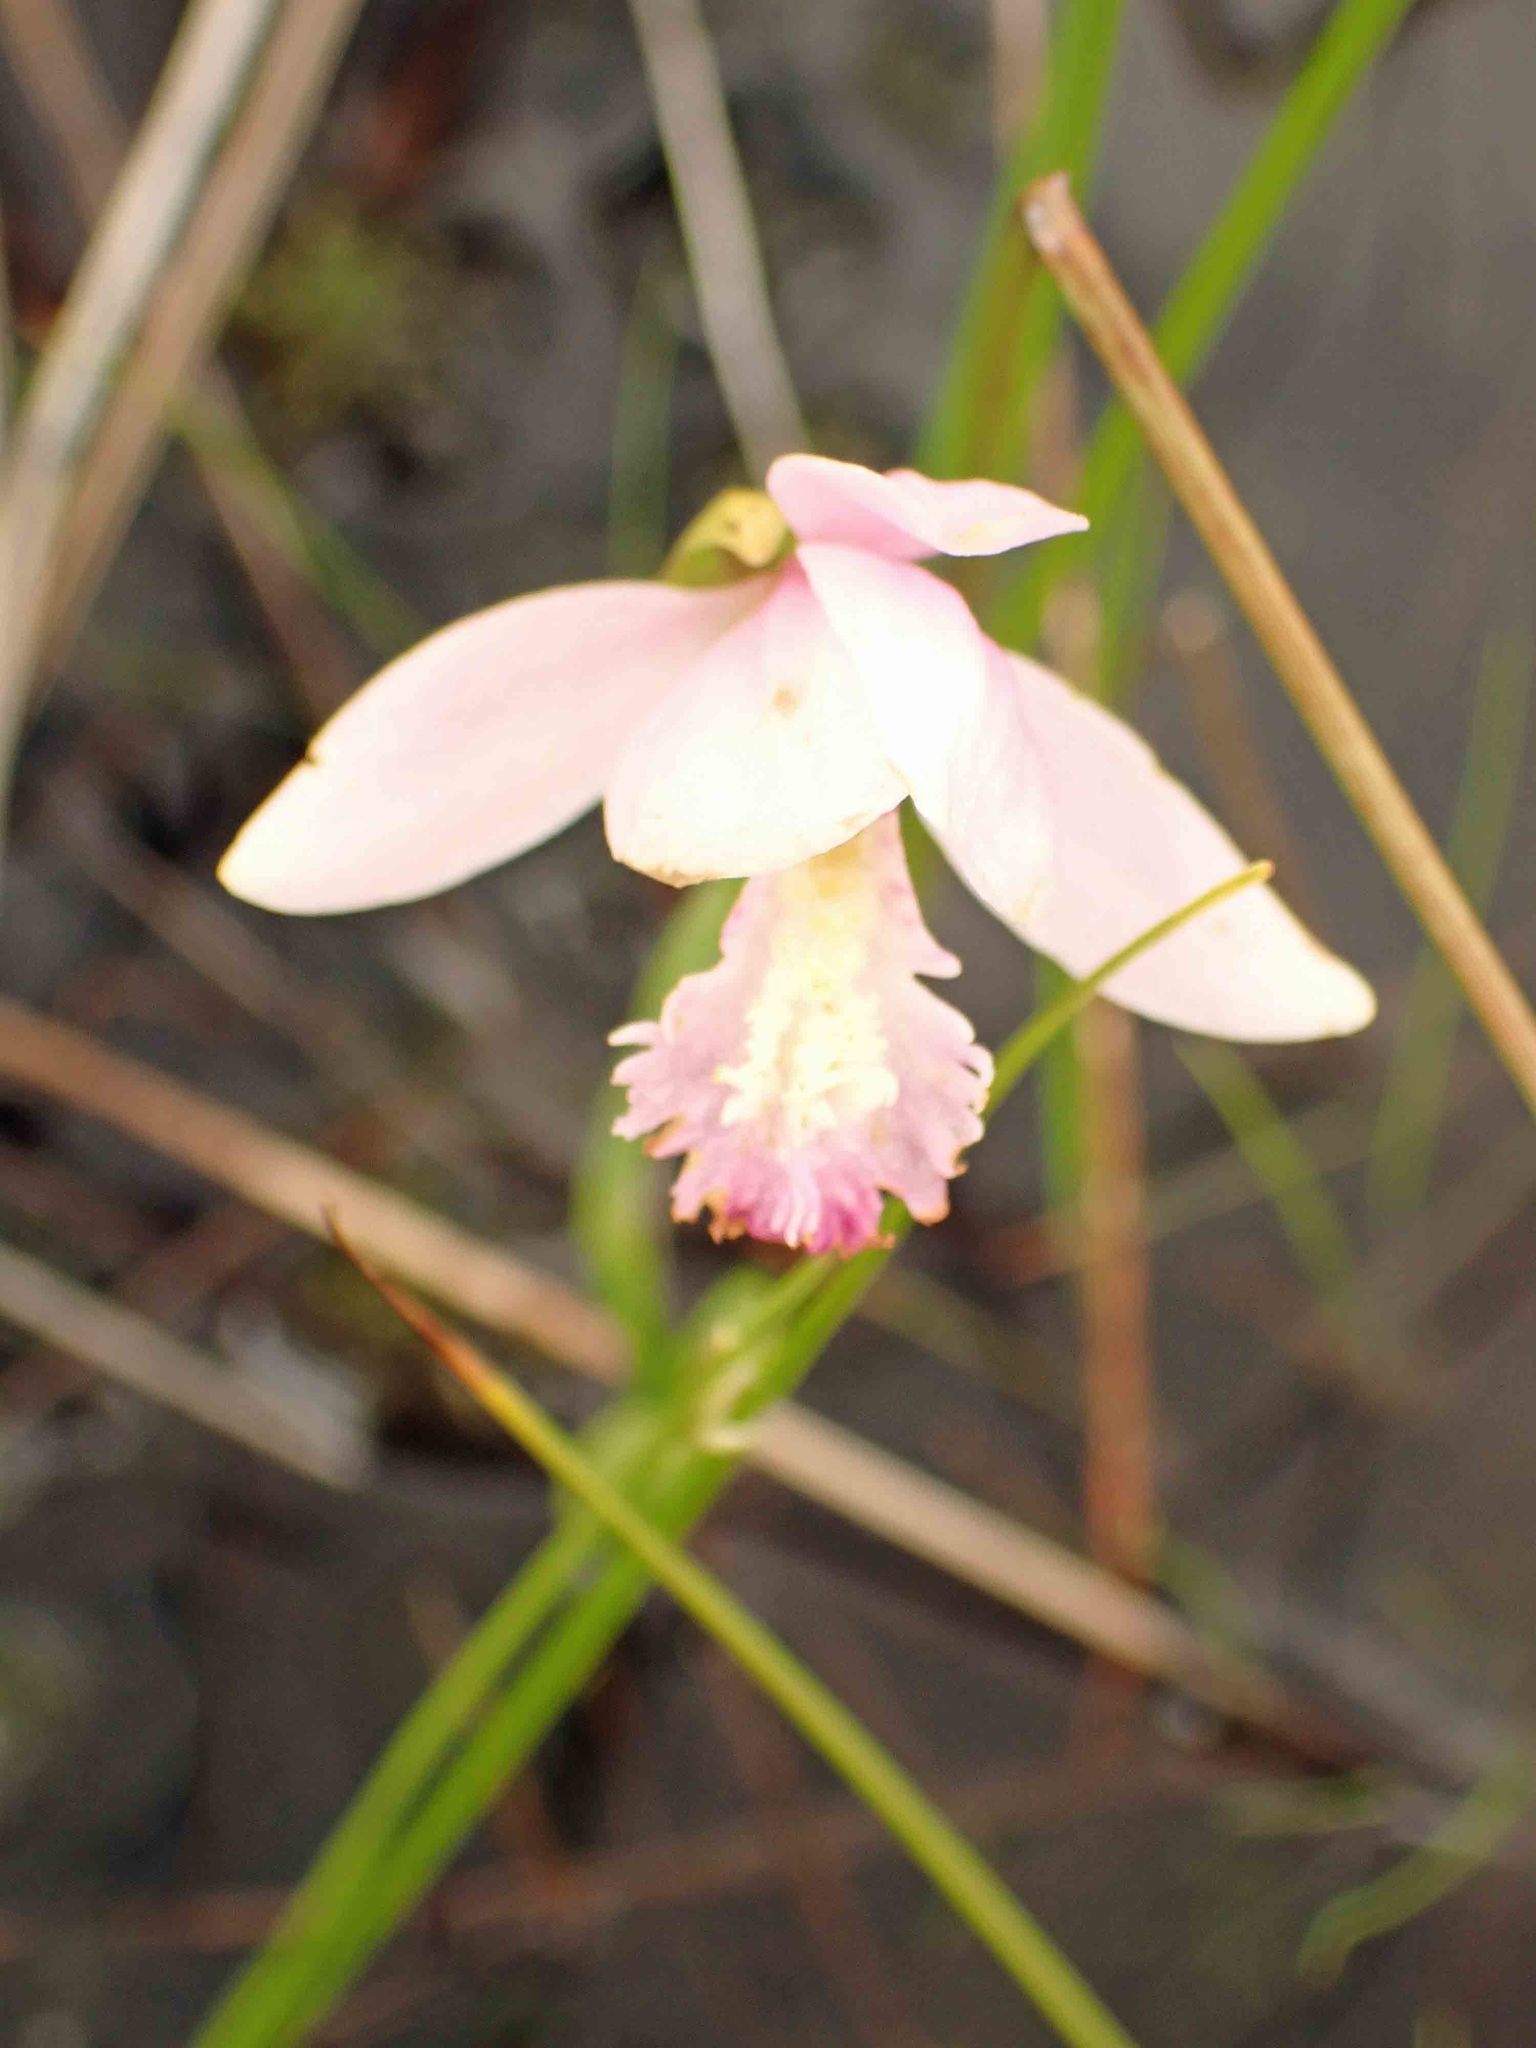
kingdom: Plantae
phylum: Tracheophyta
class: Liliopsida
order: Asparagales
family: Orchidaceae
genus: Pogonia
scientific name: Pogonia ophioglossoides
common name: Rose pogonia
